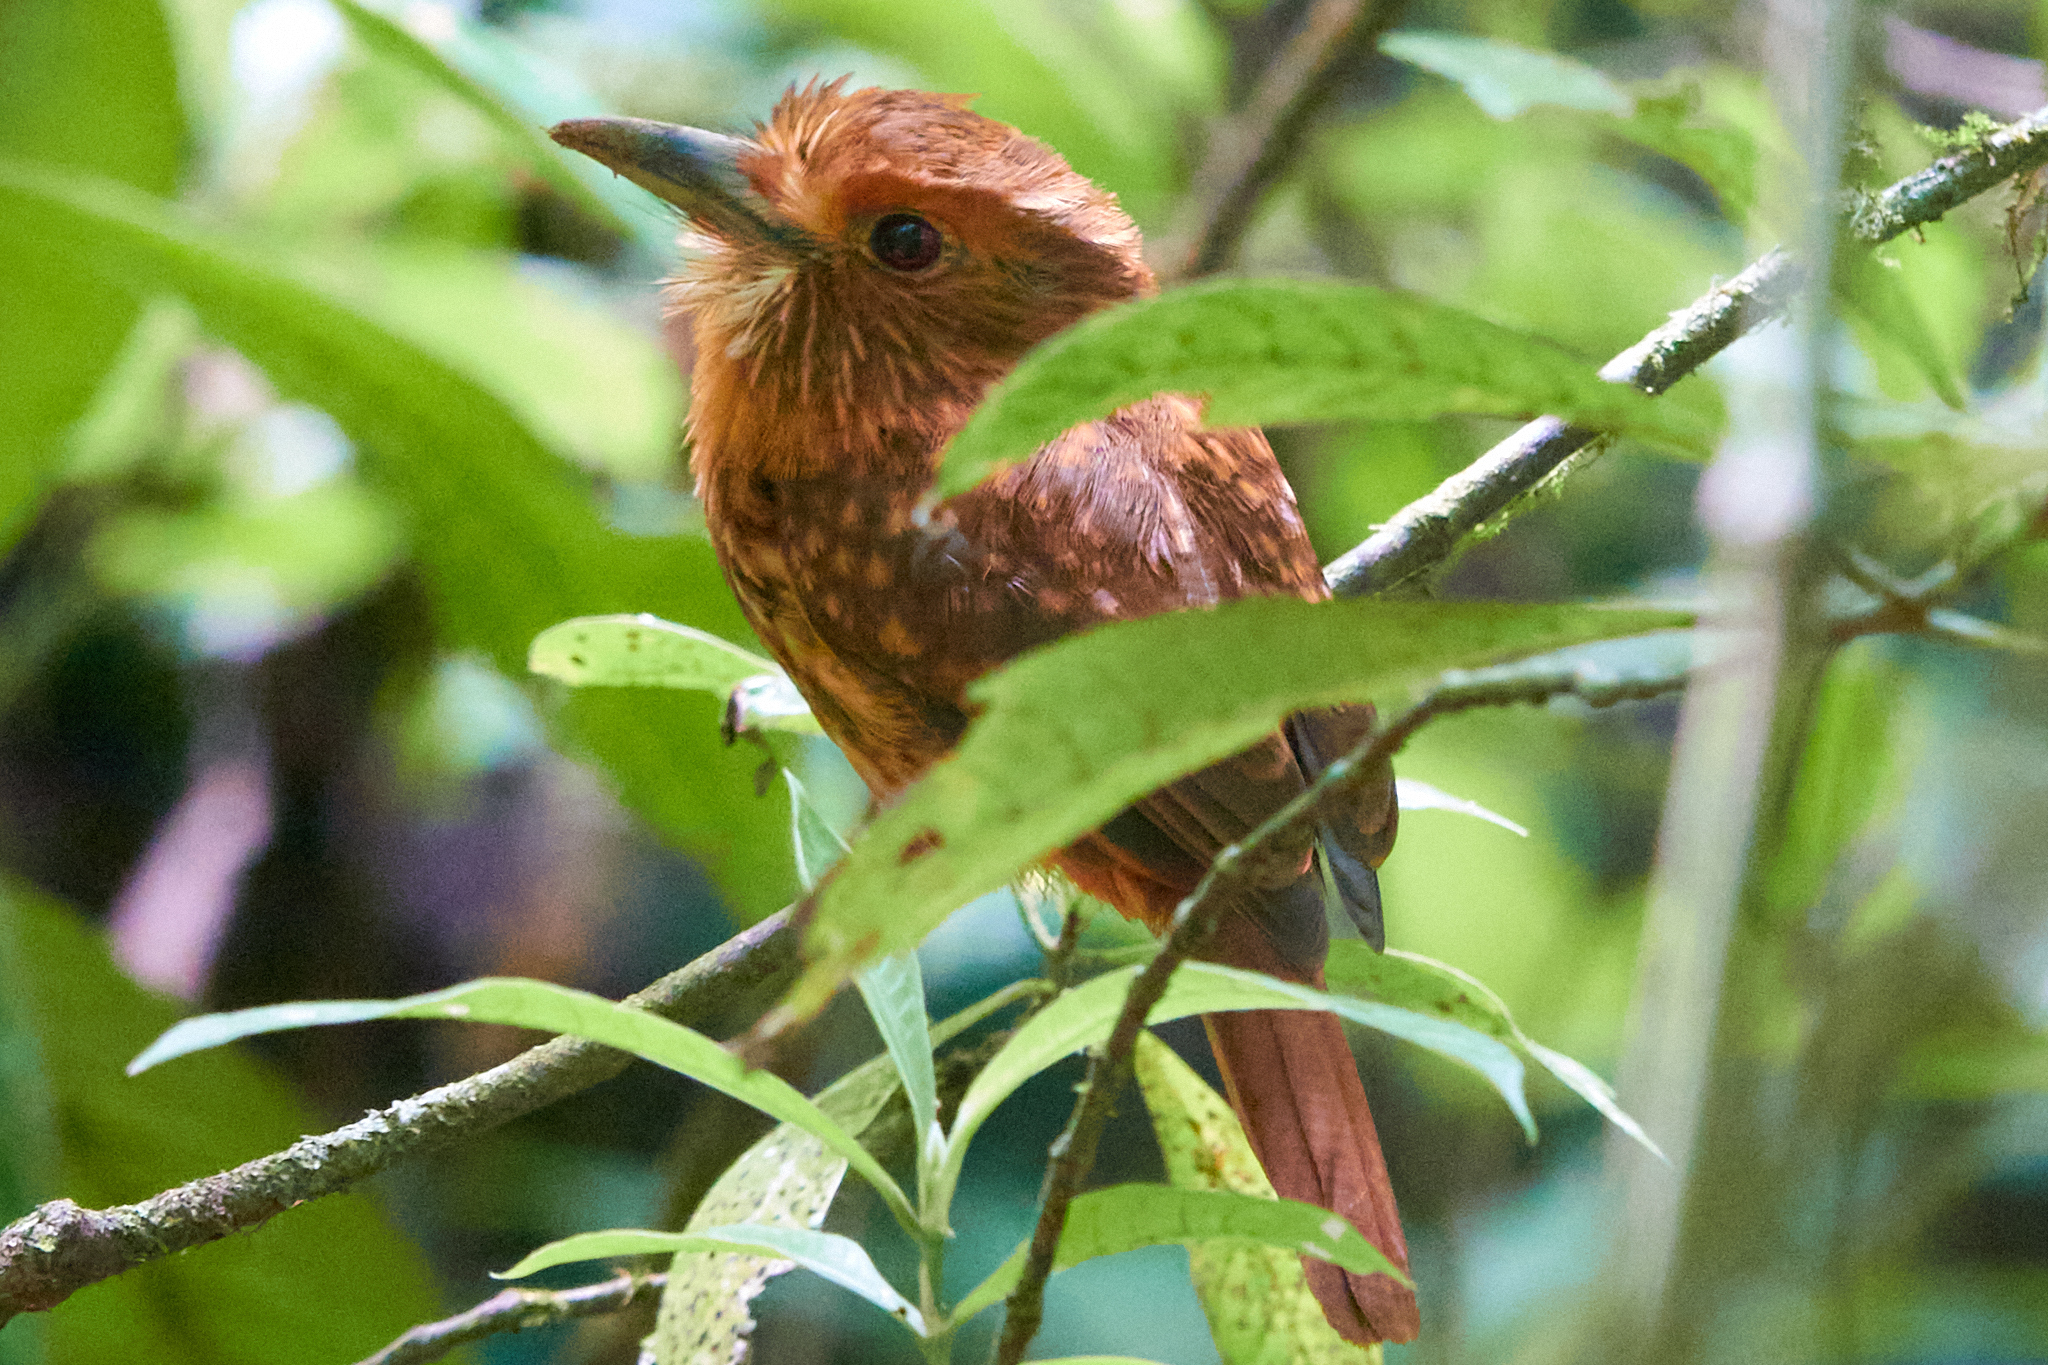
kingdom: Animalia
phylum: Chordata
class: Aves
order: Piciformes
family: Bucconidae
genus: Malacoptila
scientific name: Malacoptila panamensis
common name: White-whiskered puffbird
